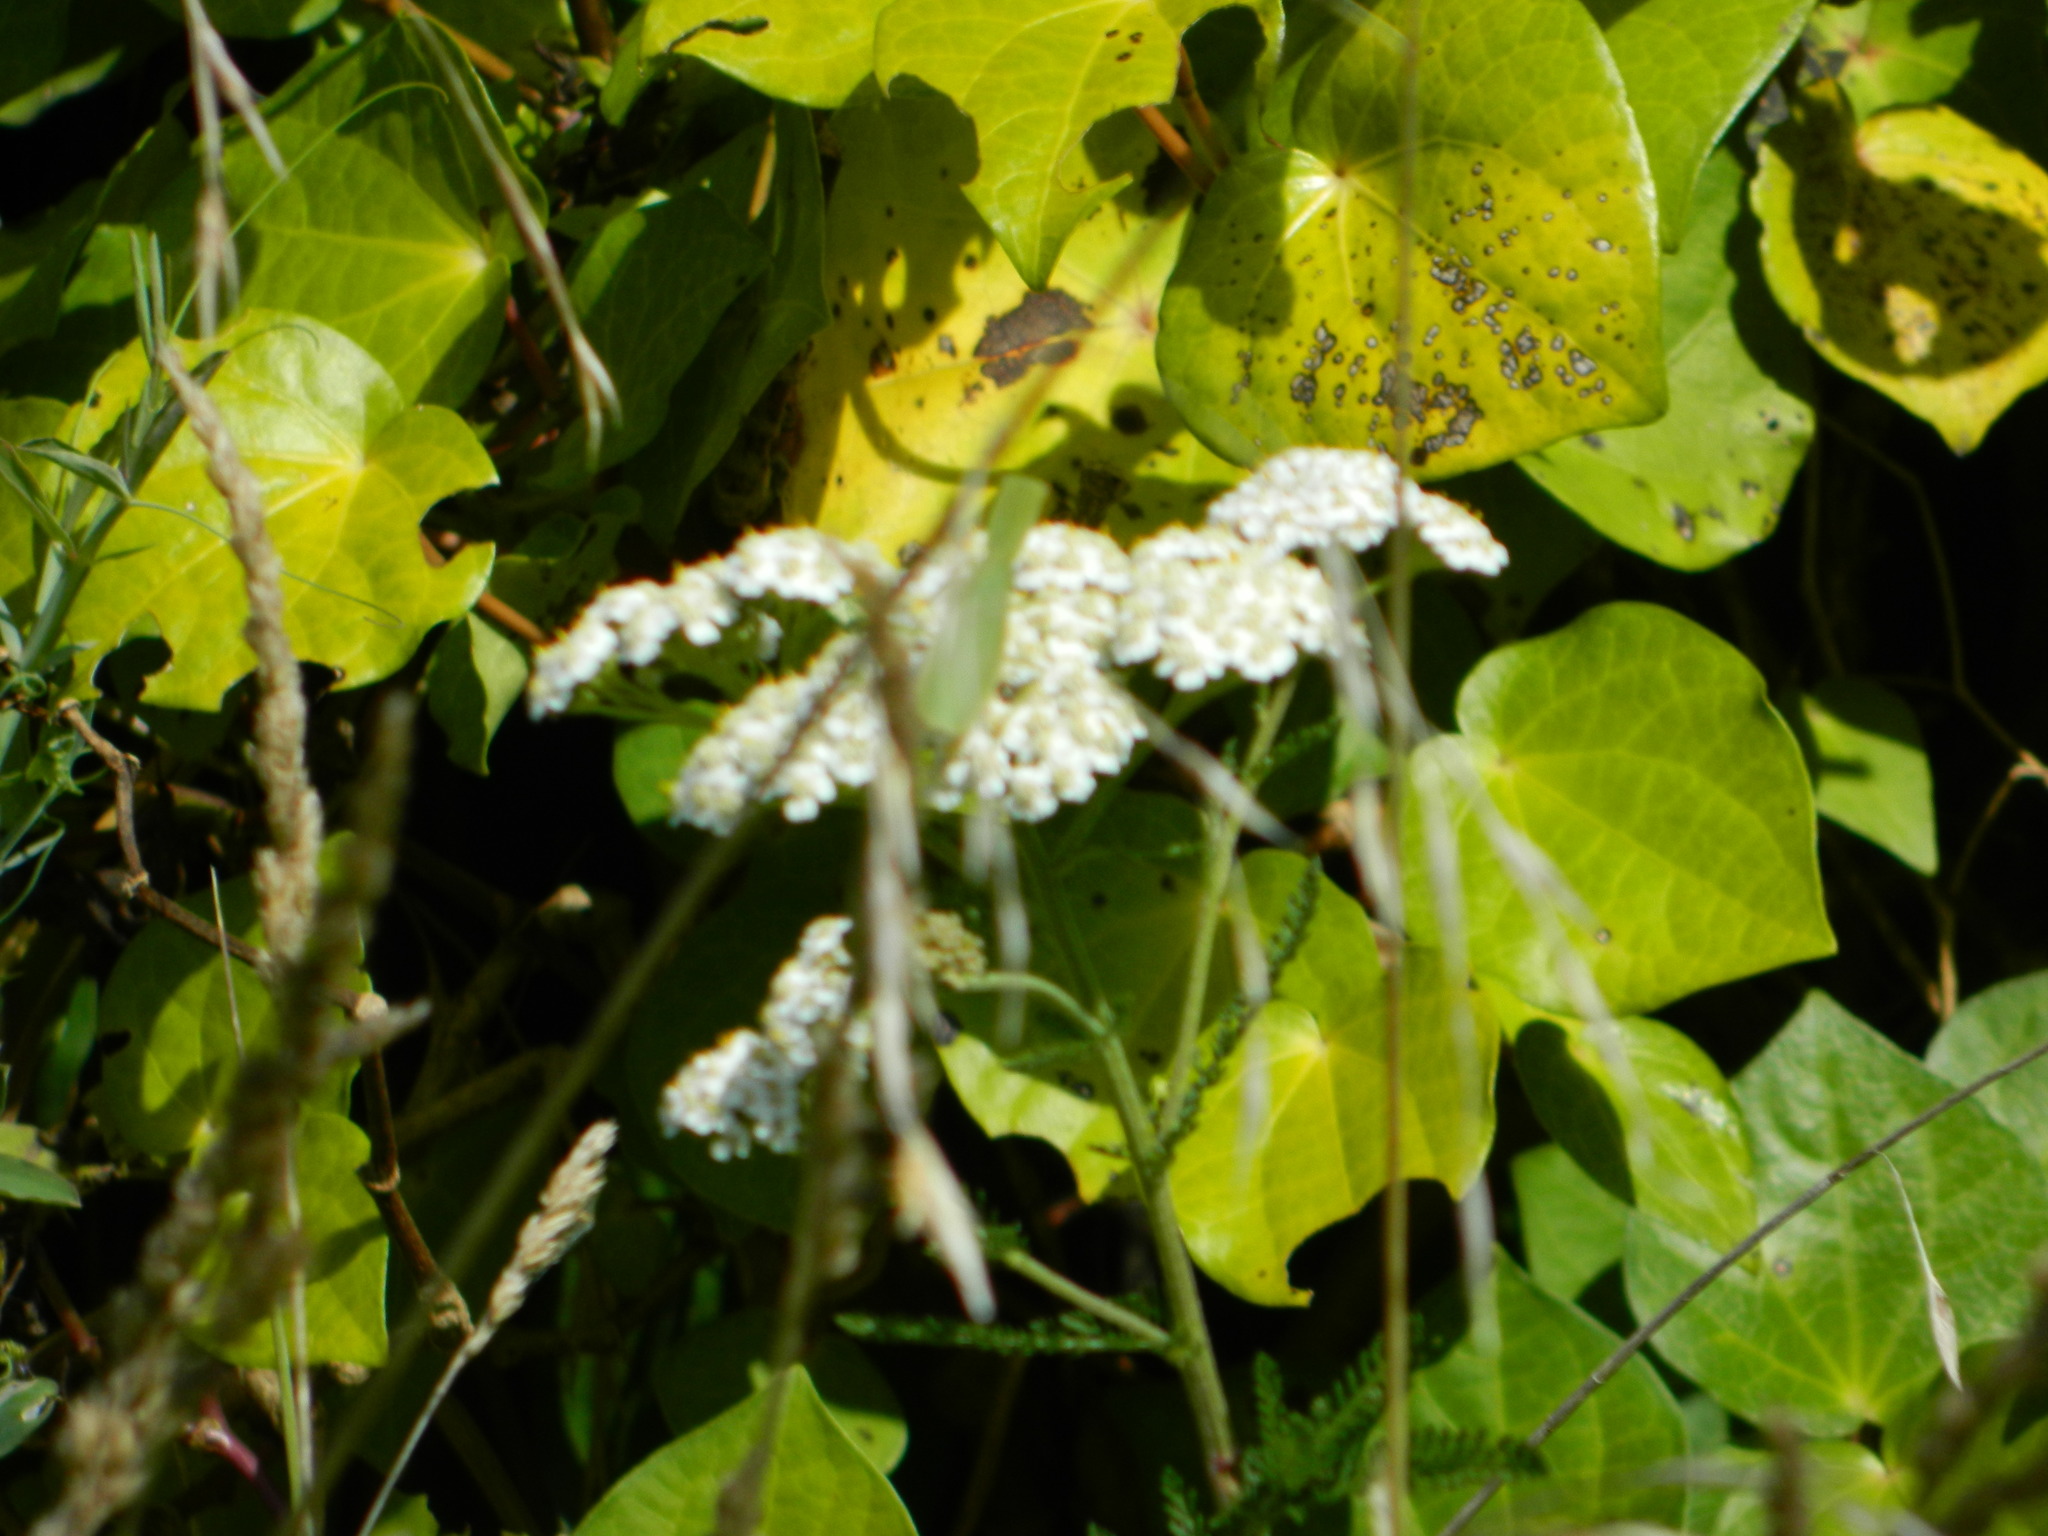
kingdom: Plantae
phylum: Tracheophyta
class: Magnoliopsida
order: Asterales
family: Asteraceae
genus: Achillea
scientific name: Achillea millefolium
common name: Yarrow
